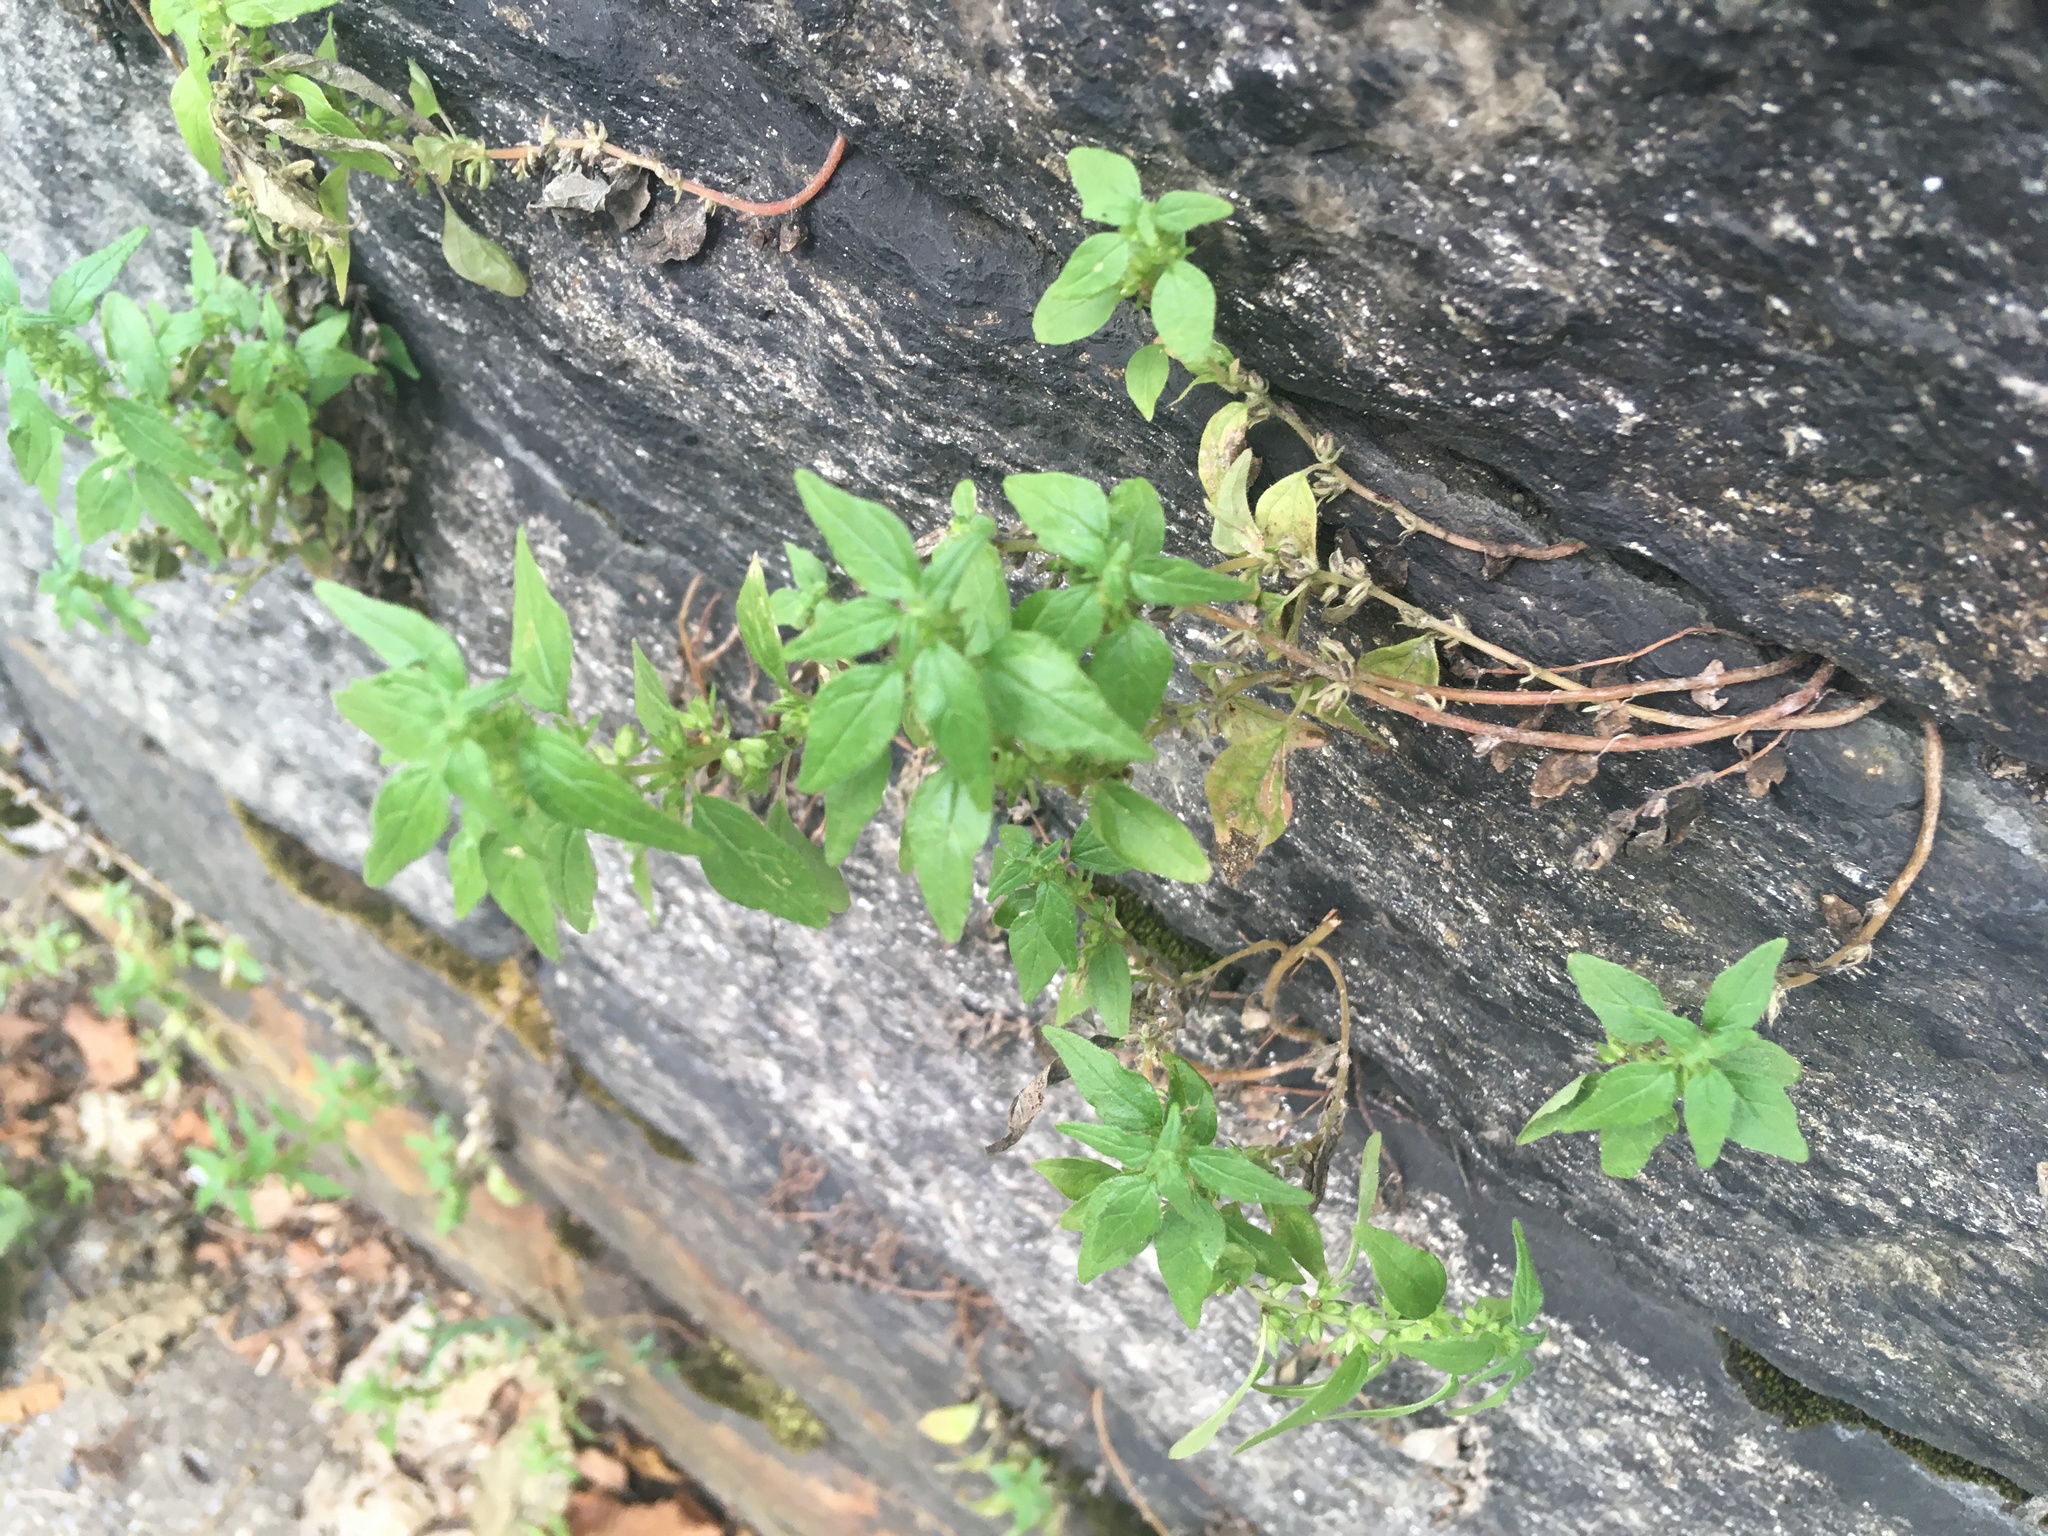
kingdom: Plantae
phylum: Tracheophyta
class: Magnoliopsida
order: Rosales
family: Urticaceae
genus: Parietaria
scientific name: Parietaria pensylvanica
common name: Pennsylvania pellitory
